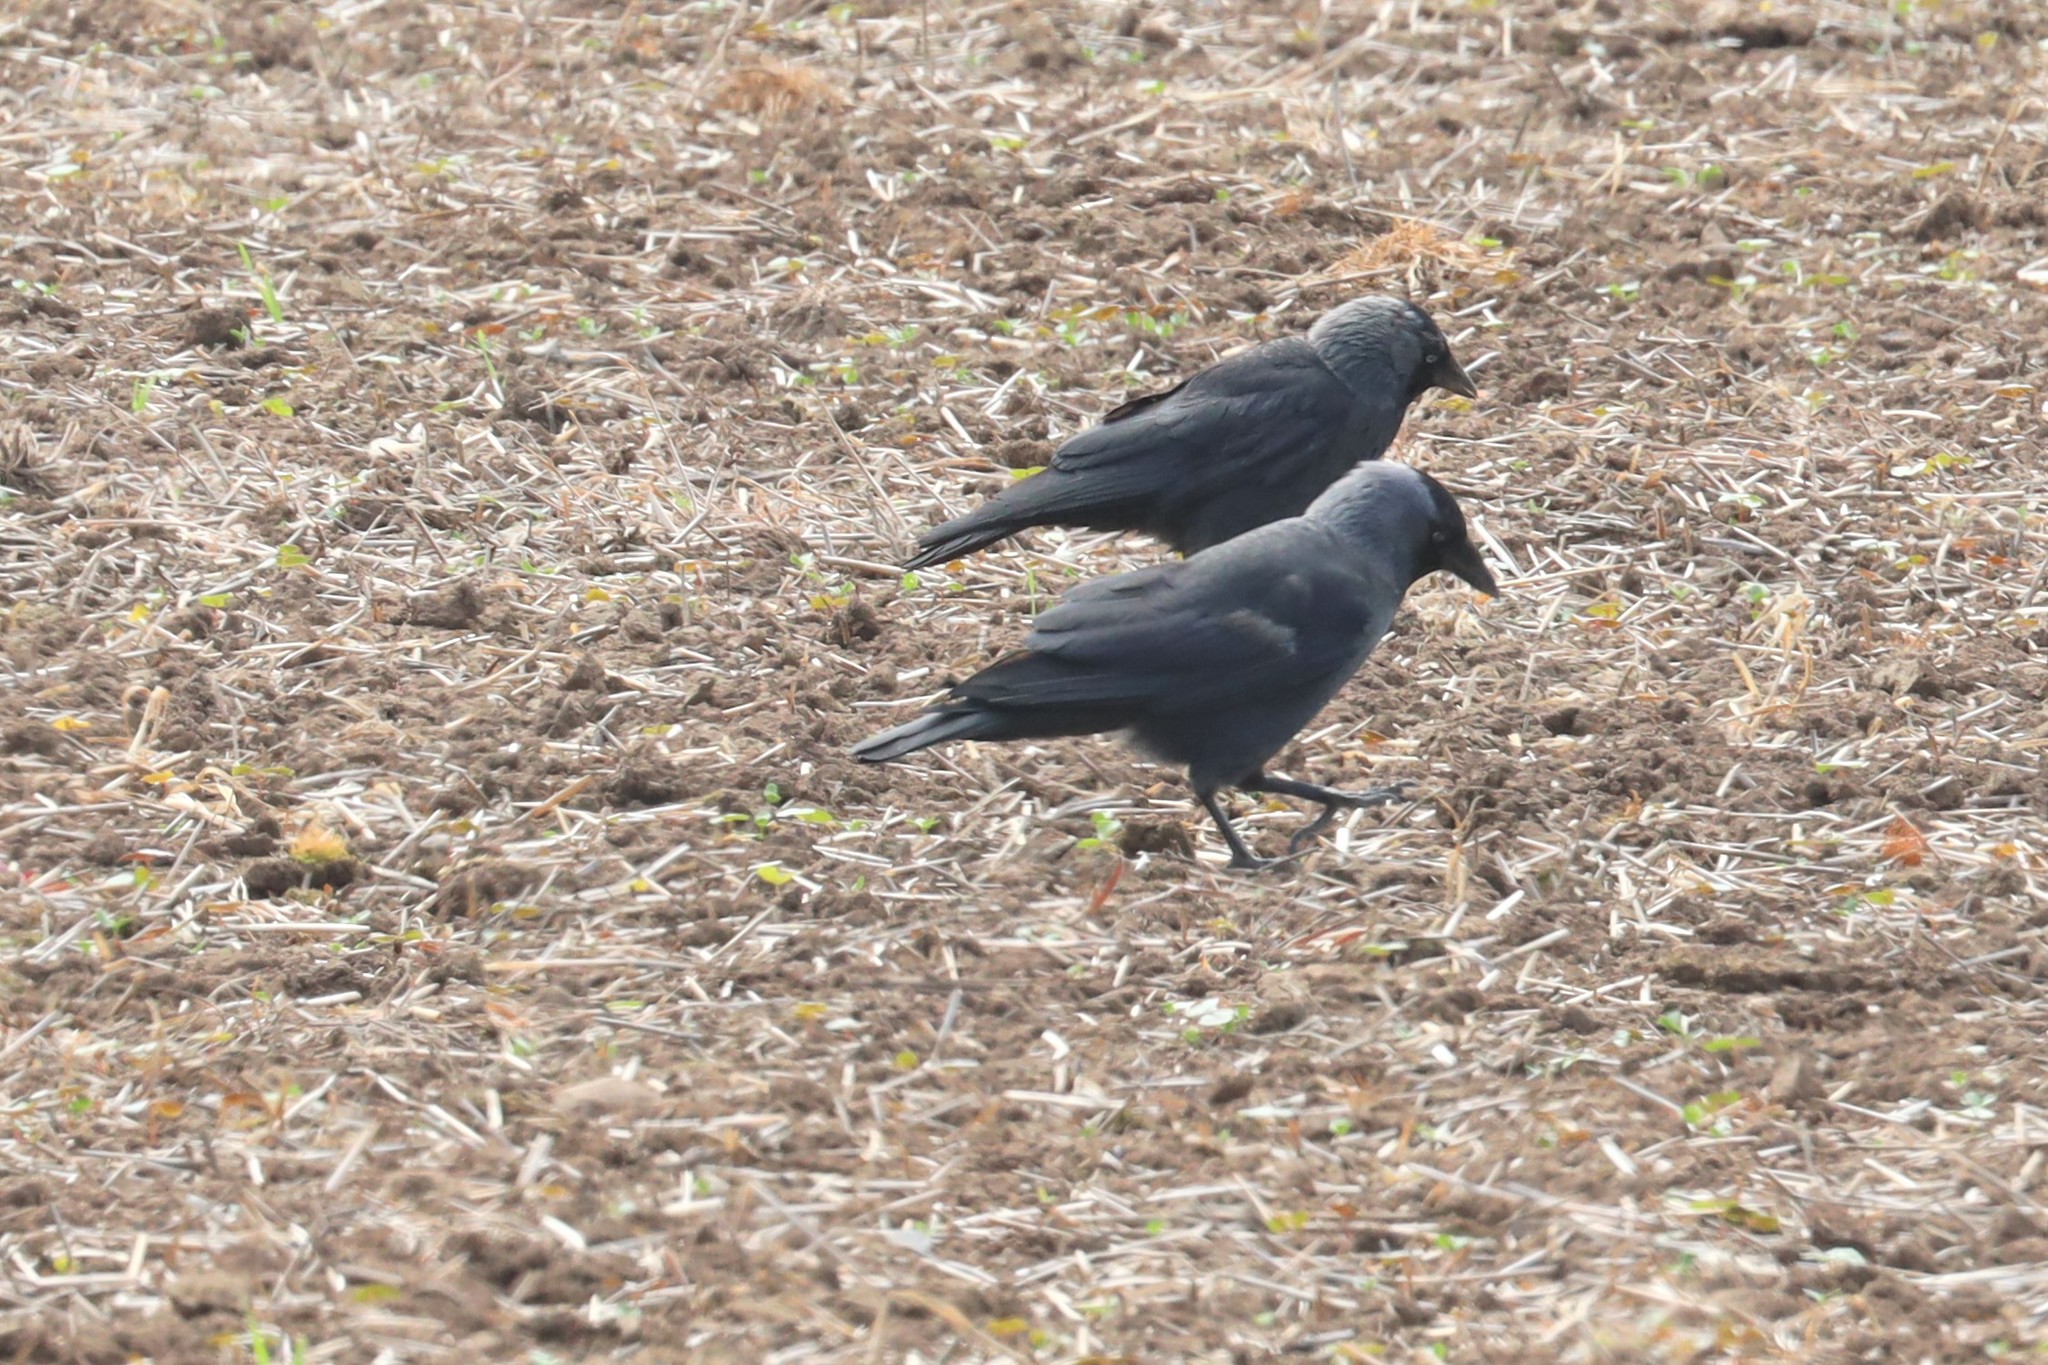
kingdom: Animalia
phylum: Chordata
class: Aves
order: Passeriformes
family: Corvidae
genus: Coloeus
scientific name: Coloeus monedula
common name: Western jackdaw
